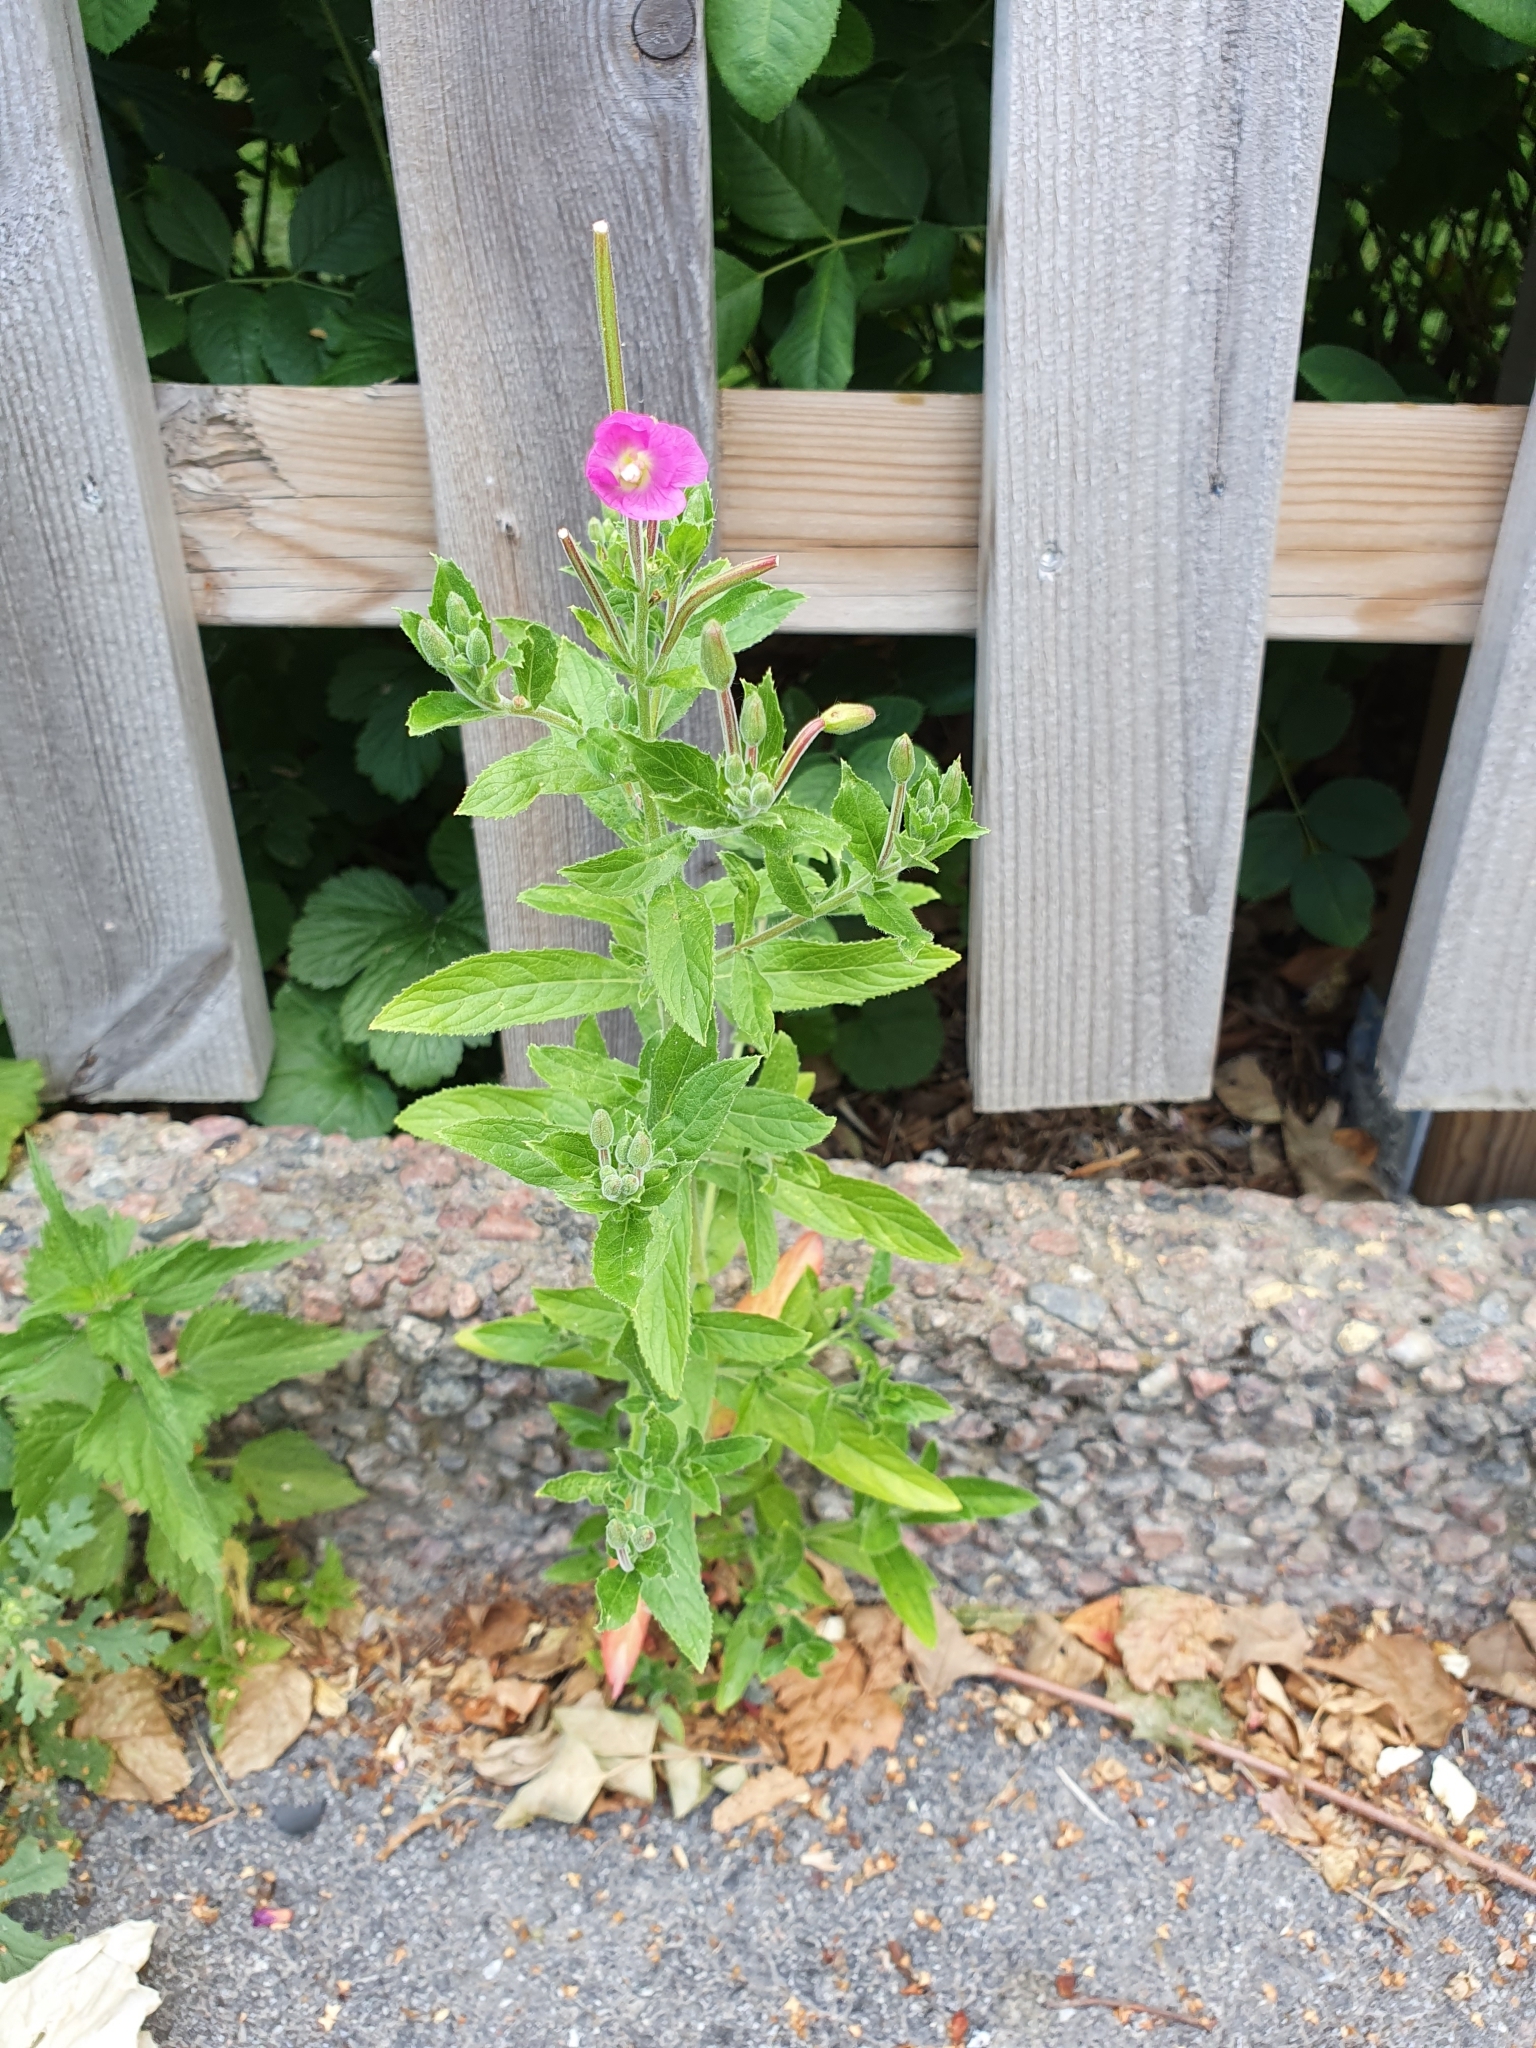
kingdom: Plantae
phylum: Tracheophyta
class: Magnoliopsida
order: Myrtales
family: Onagraceae
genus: Epilobium
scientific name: Epilobium hirsutum
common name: Great willowherb
